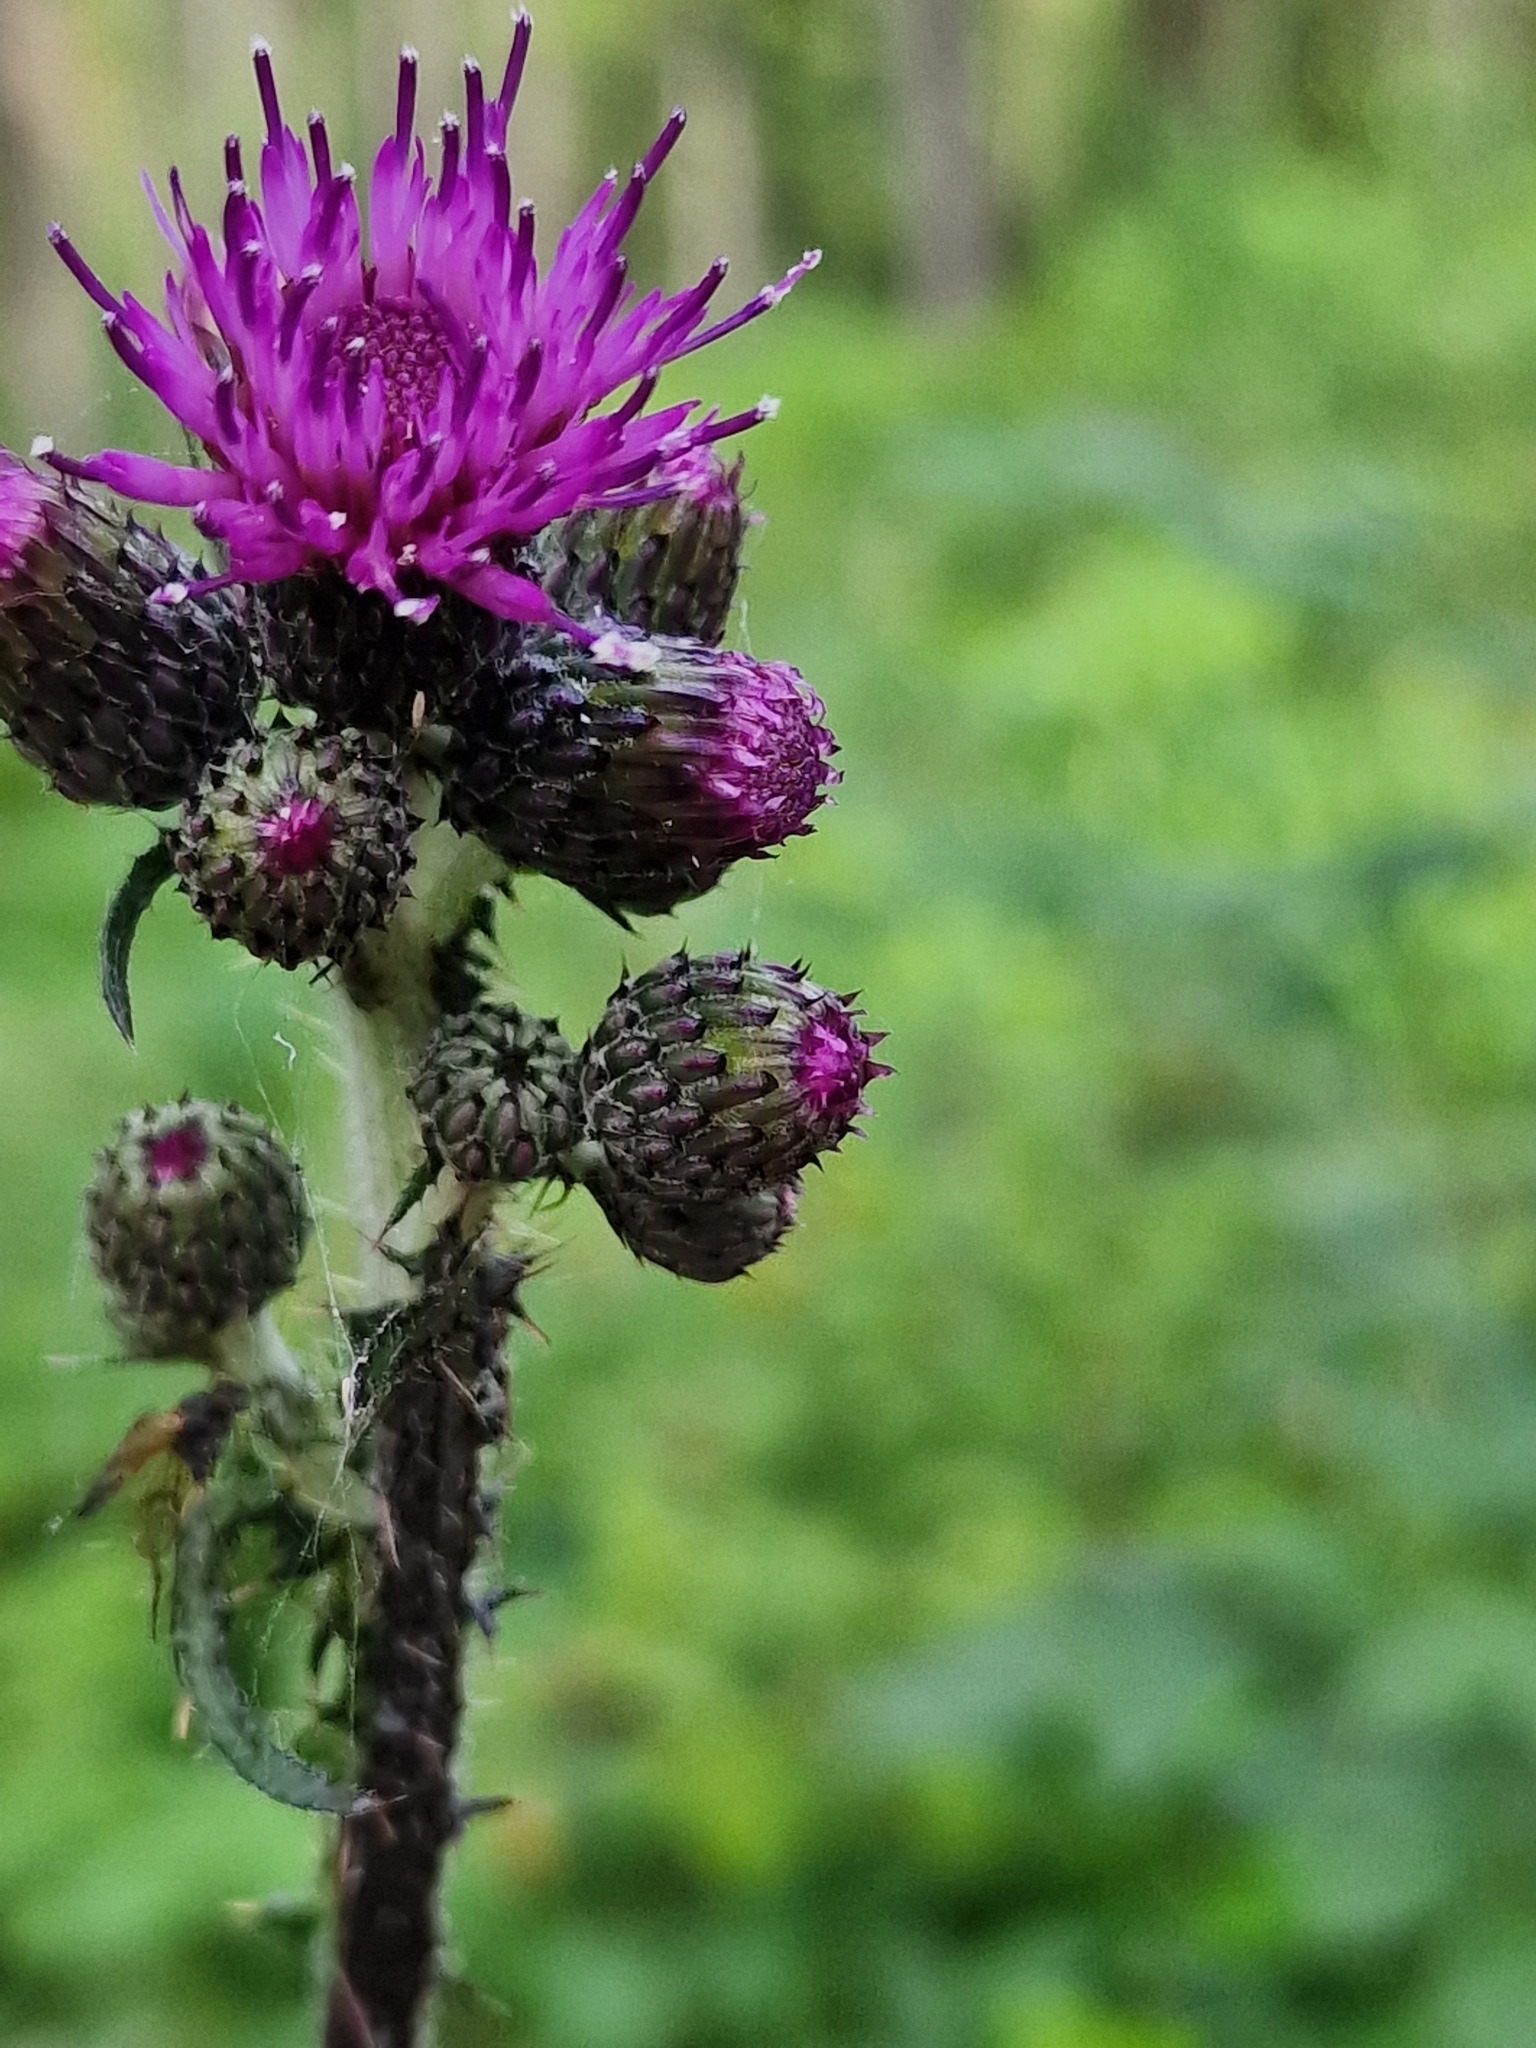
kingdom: Plantae
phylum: Tracheophyta
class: Magnoliopsida
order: Asterales
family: Asteraceae
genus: Cirsium
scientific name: Cirsium palustre
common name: Marsh thistle
